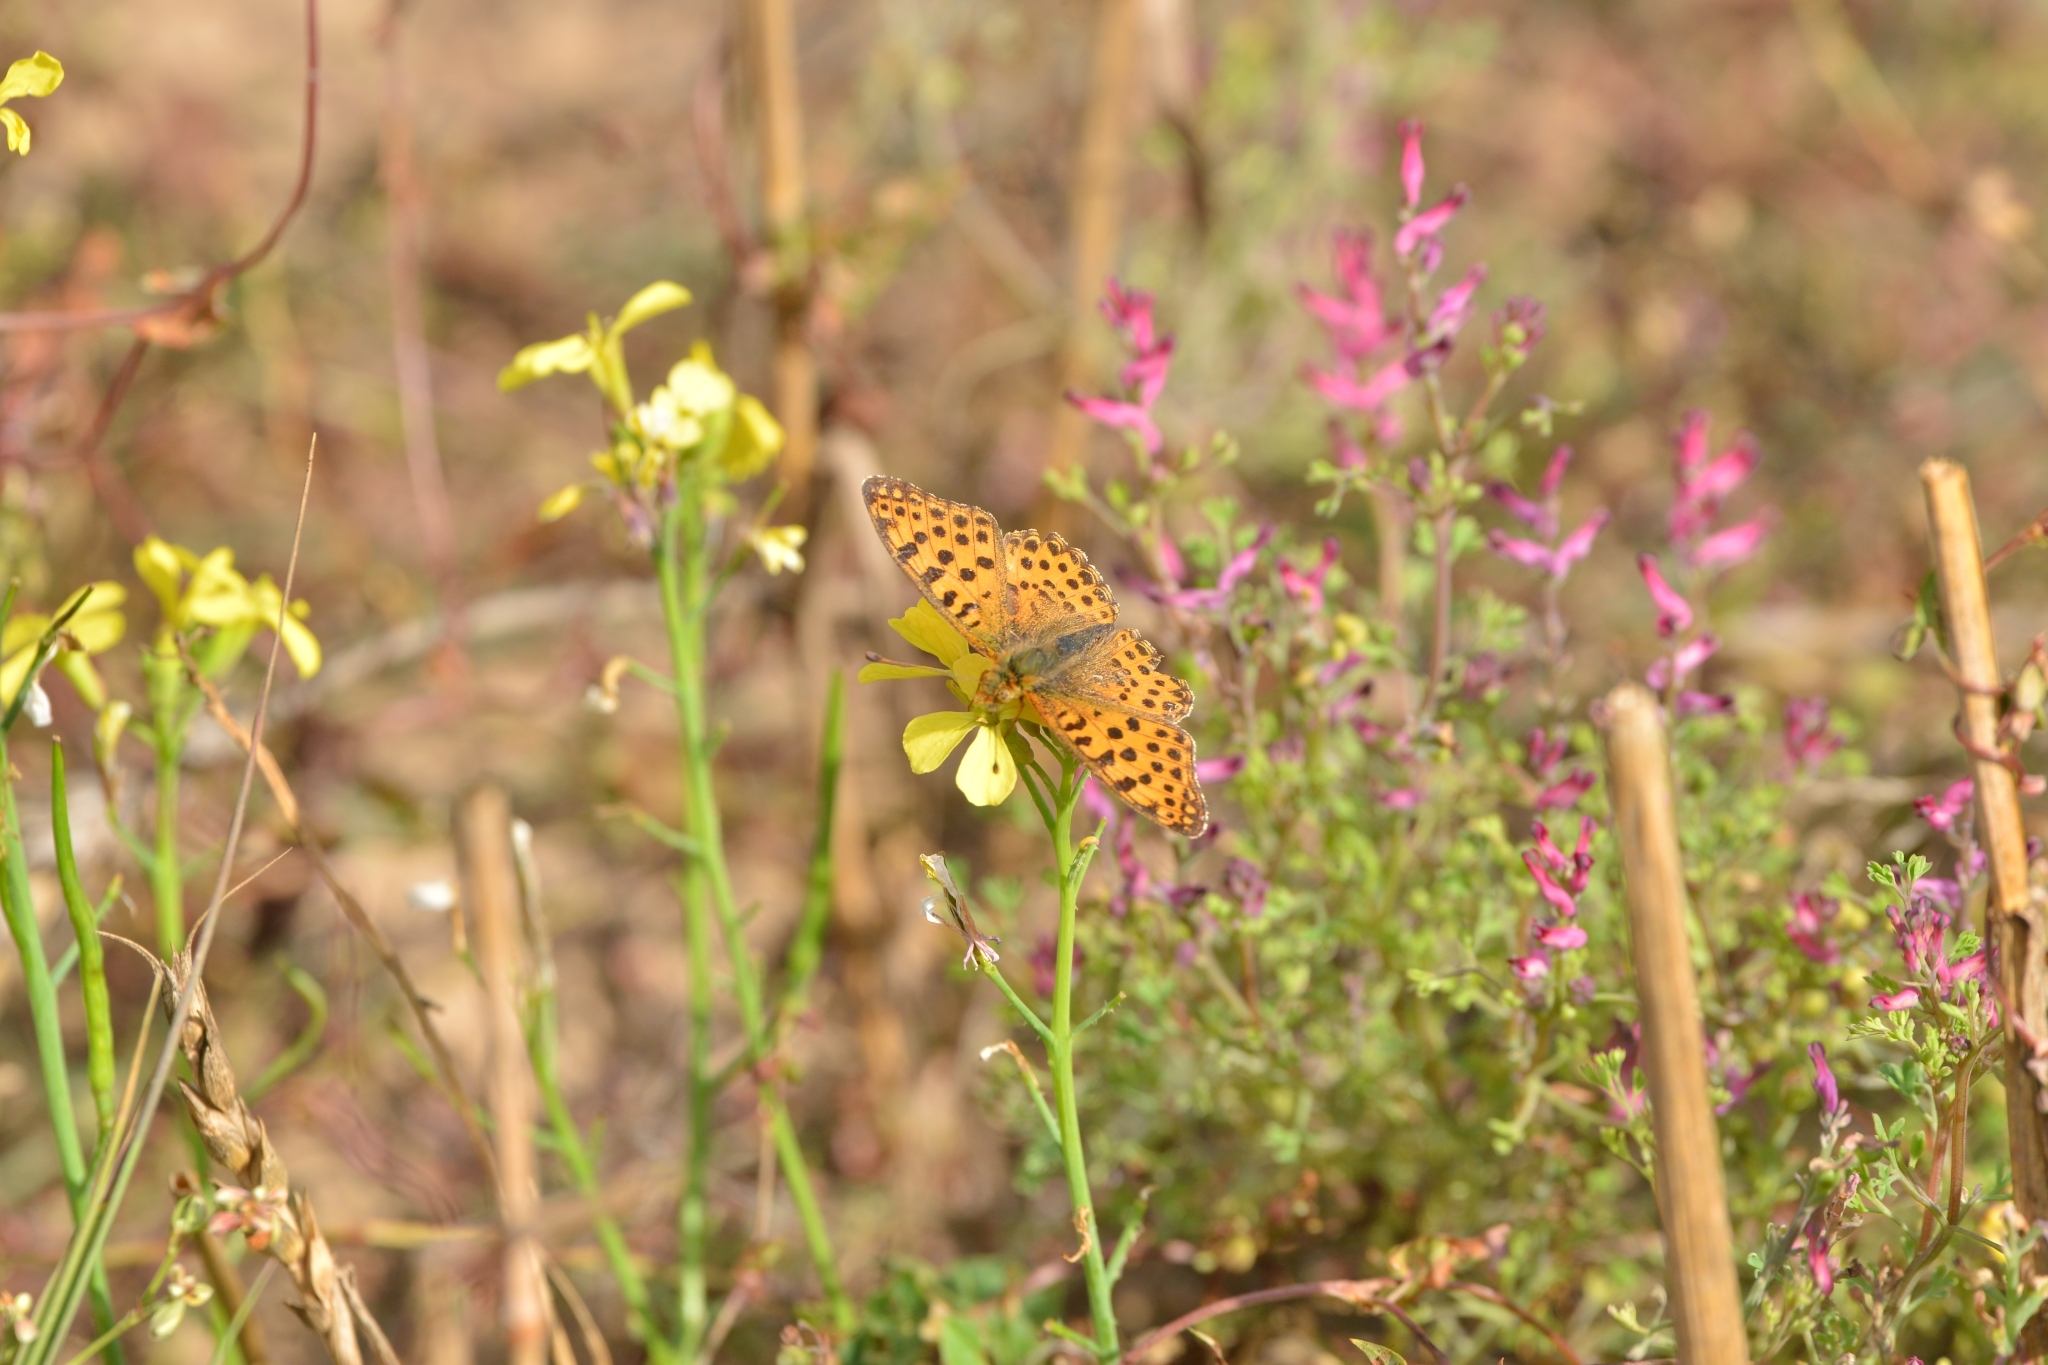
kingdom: Animalia
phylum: Arthropoda
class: Insecta
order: Lepidoptera
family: Nymphalidae
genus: Issoria
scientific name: Issoria lathonia
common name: Queen of spain fritillary
